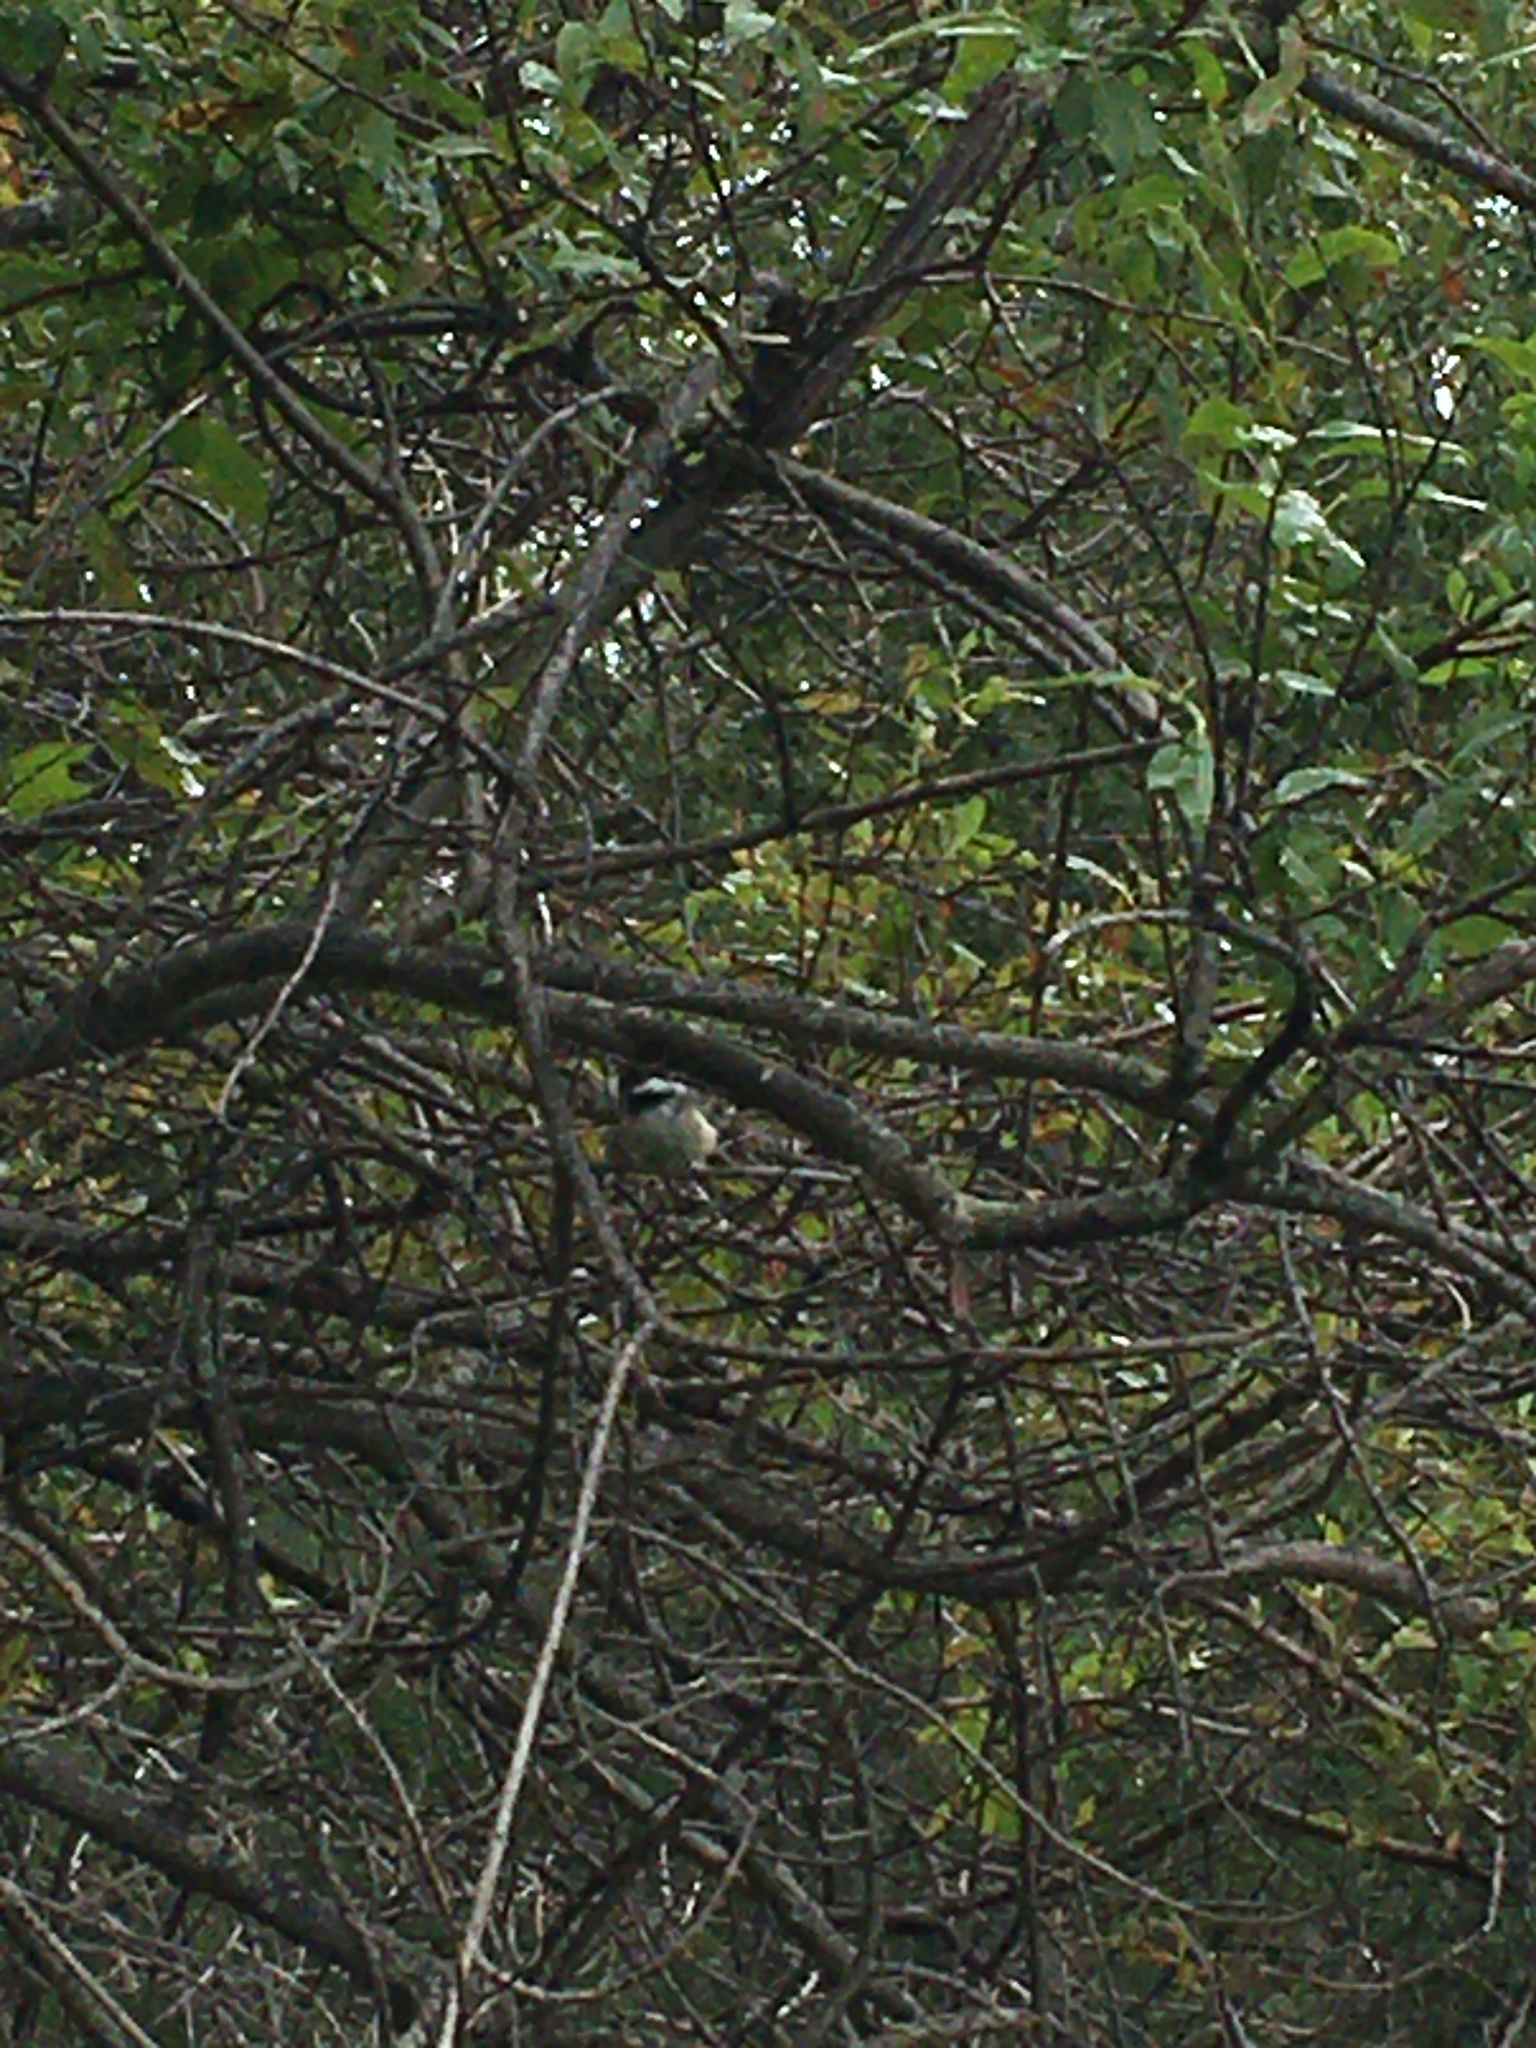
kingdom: Animalia
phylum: Chordata
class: Aves
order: Passeriformes
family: Paridae
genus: Poecile
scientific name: Poecile atricapillus
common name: Black-capped chickadee
